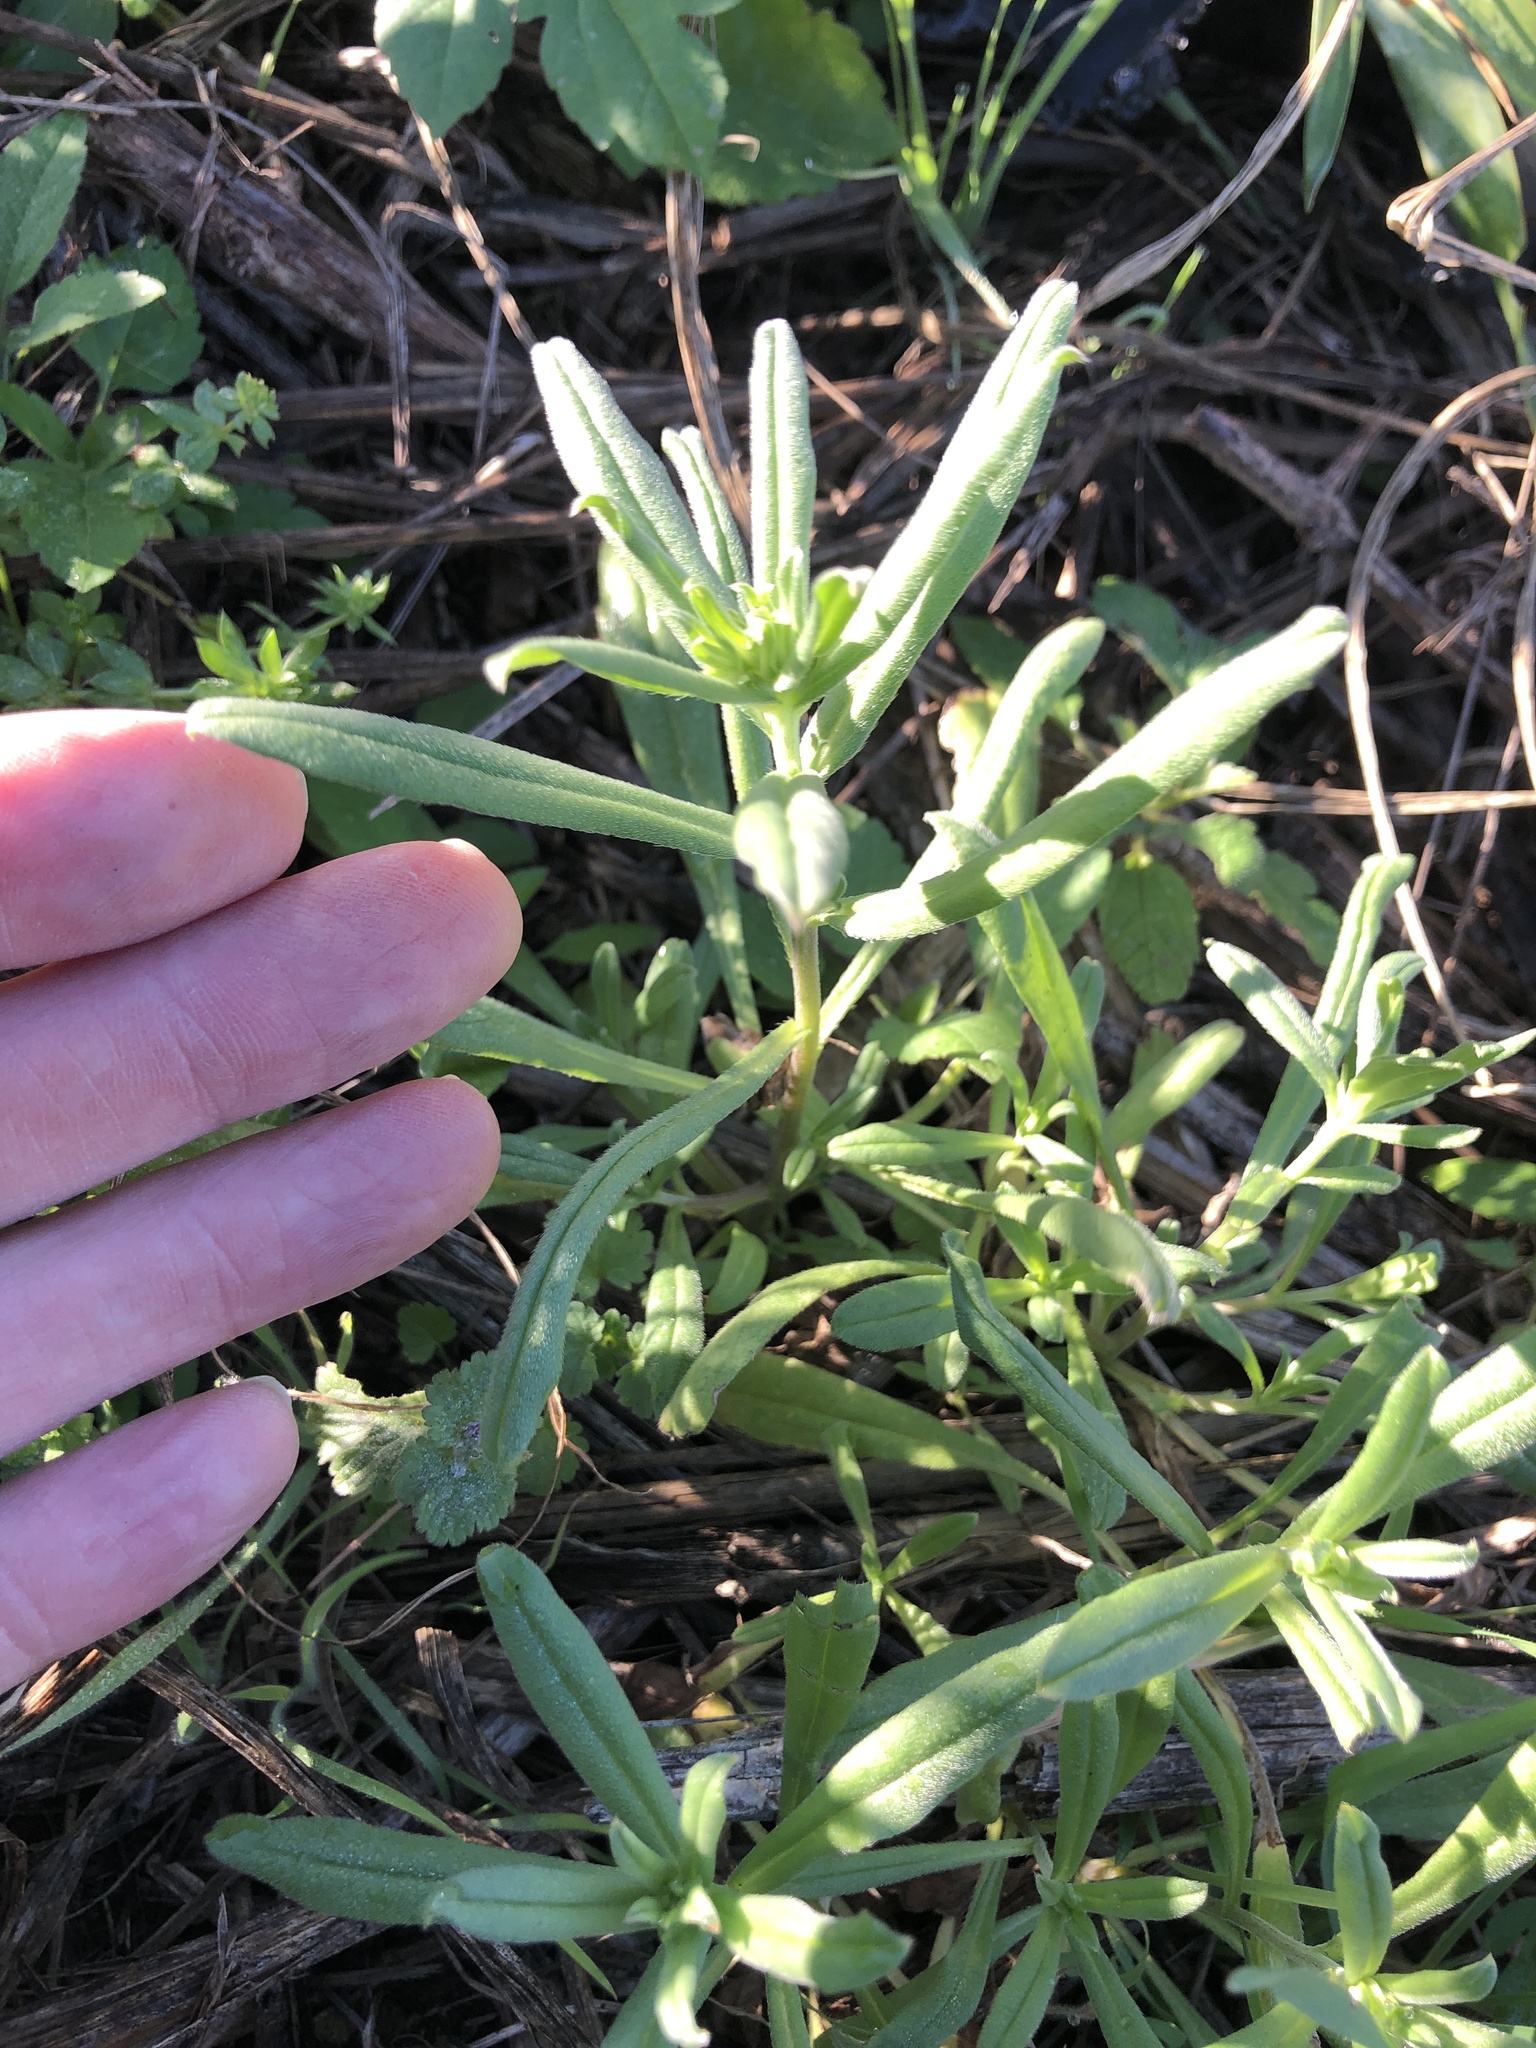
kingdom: Plantae
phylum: Tracheophyta
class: Magnoliopsida
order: Boraginales
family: Boraginaceae
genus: Buglossoides
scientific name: Buglossoides arvensis
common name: Corn gromwell
